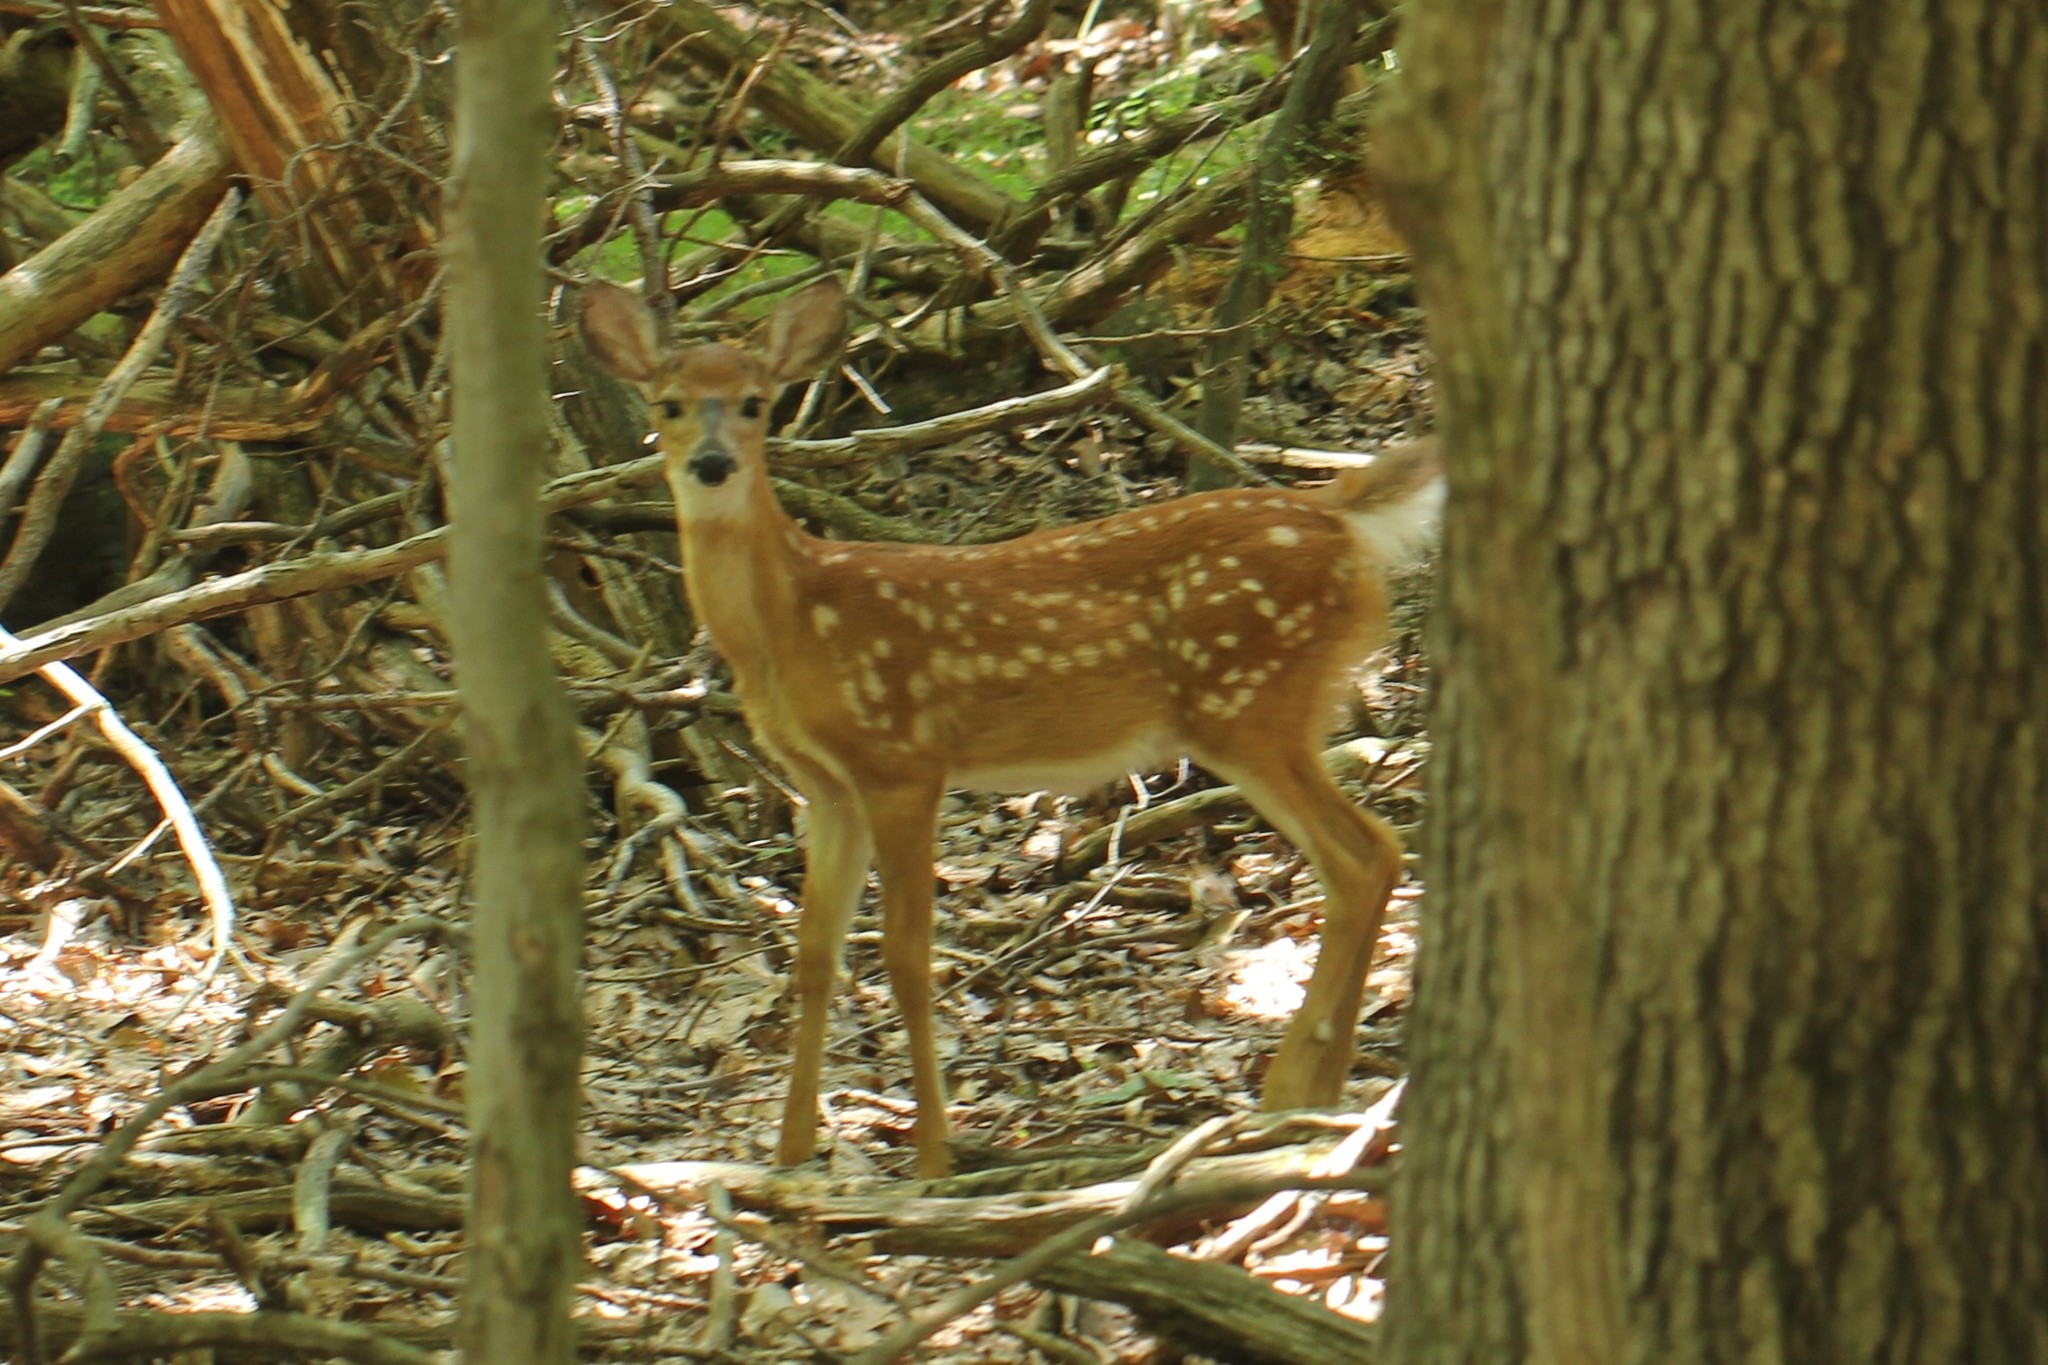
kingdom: Animalia
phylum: Chordata
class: Mammalia
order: Artiodactyla
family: Cervidae
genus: Odocoileus
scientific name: Odocoileus virginianus
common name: White-tailed deer
